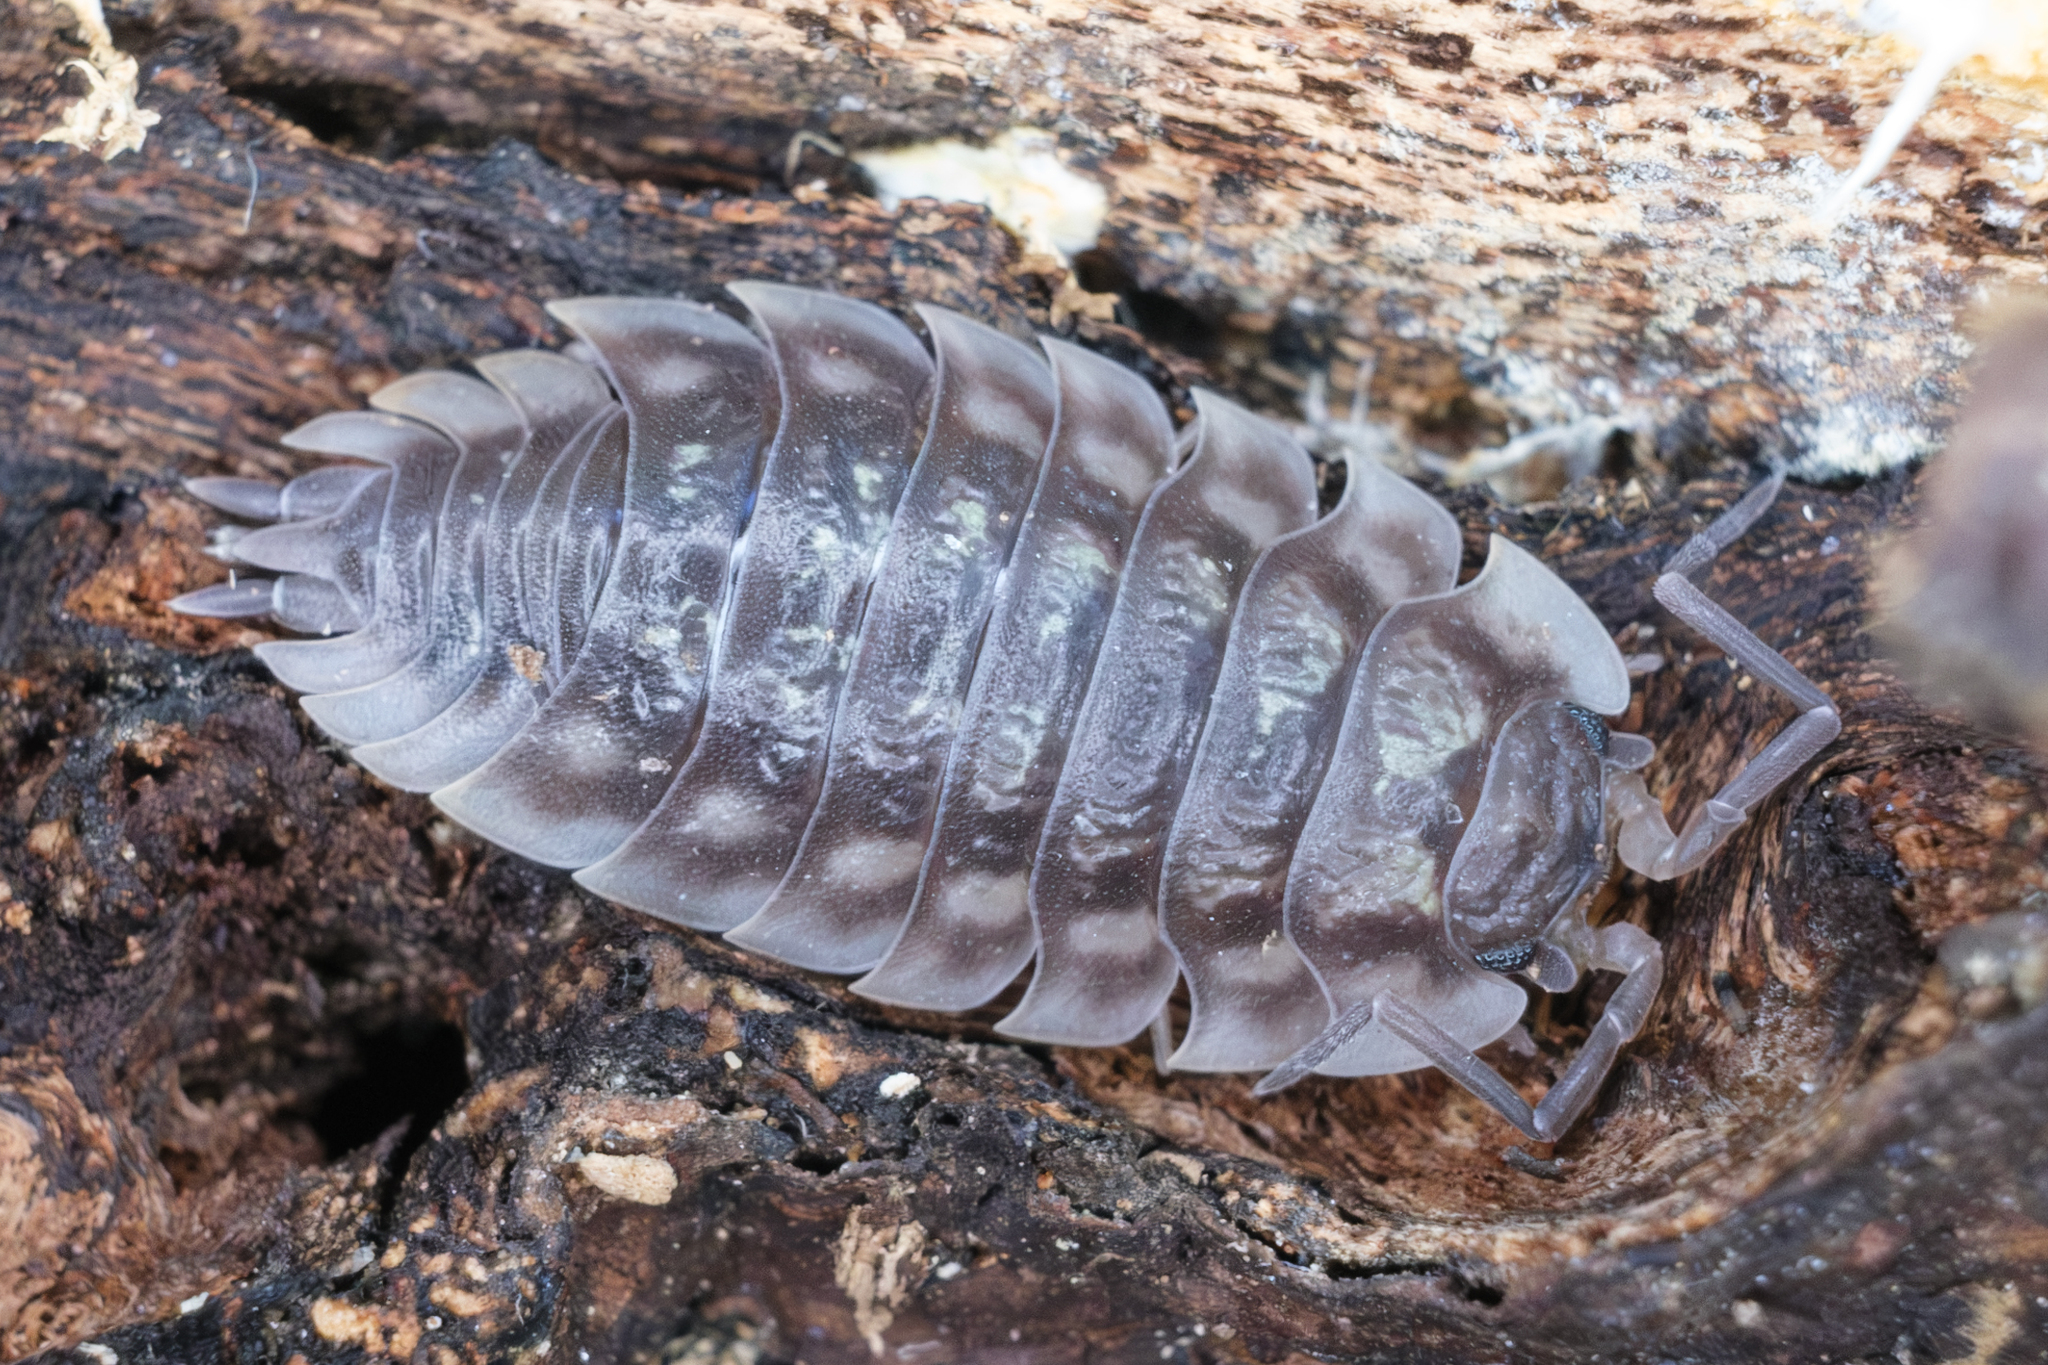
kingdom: Animalia
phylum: Arthropoda
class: Malacostraca
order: Isopoda
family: Oniscidae
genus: Oniscus
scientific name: Oniscus asellus
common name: Common shiny woodlouse
